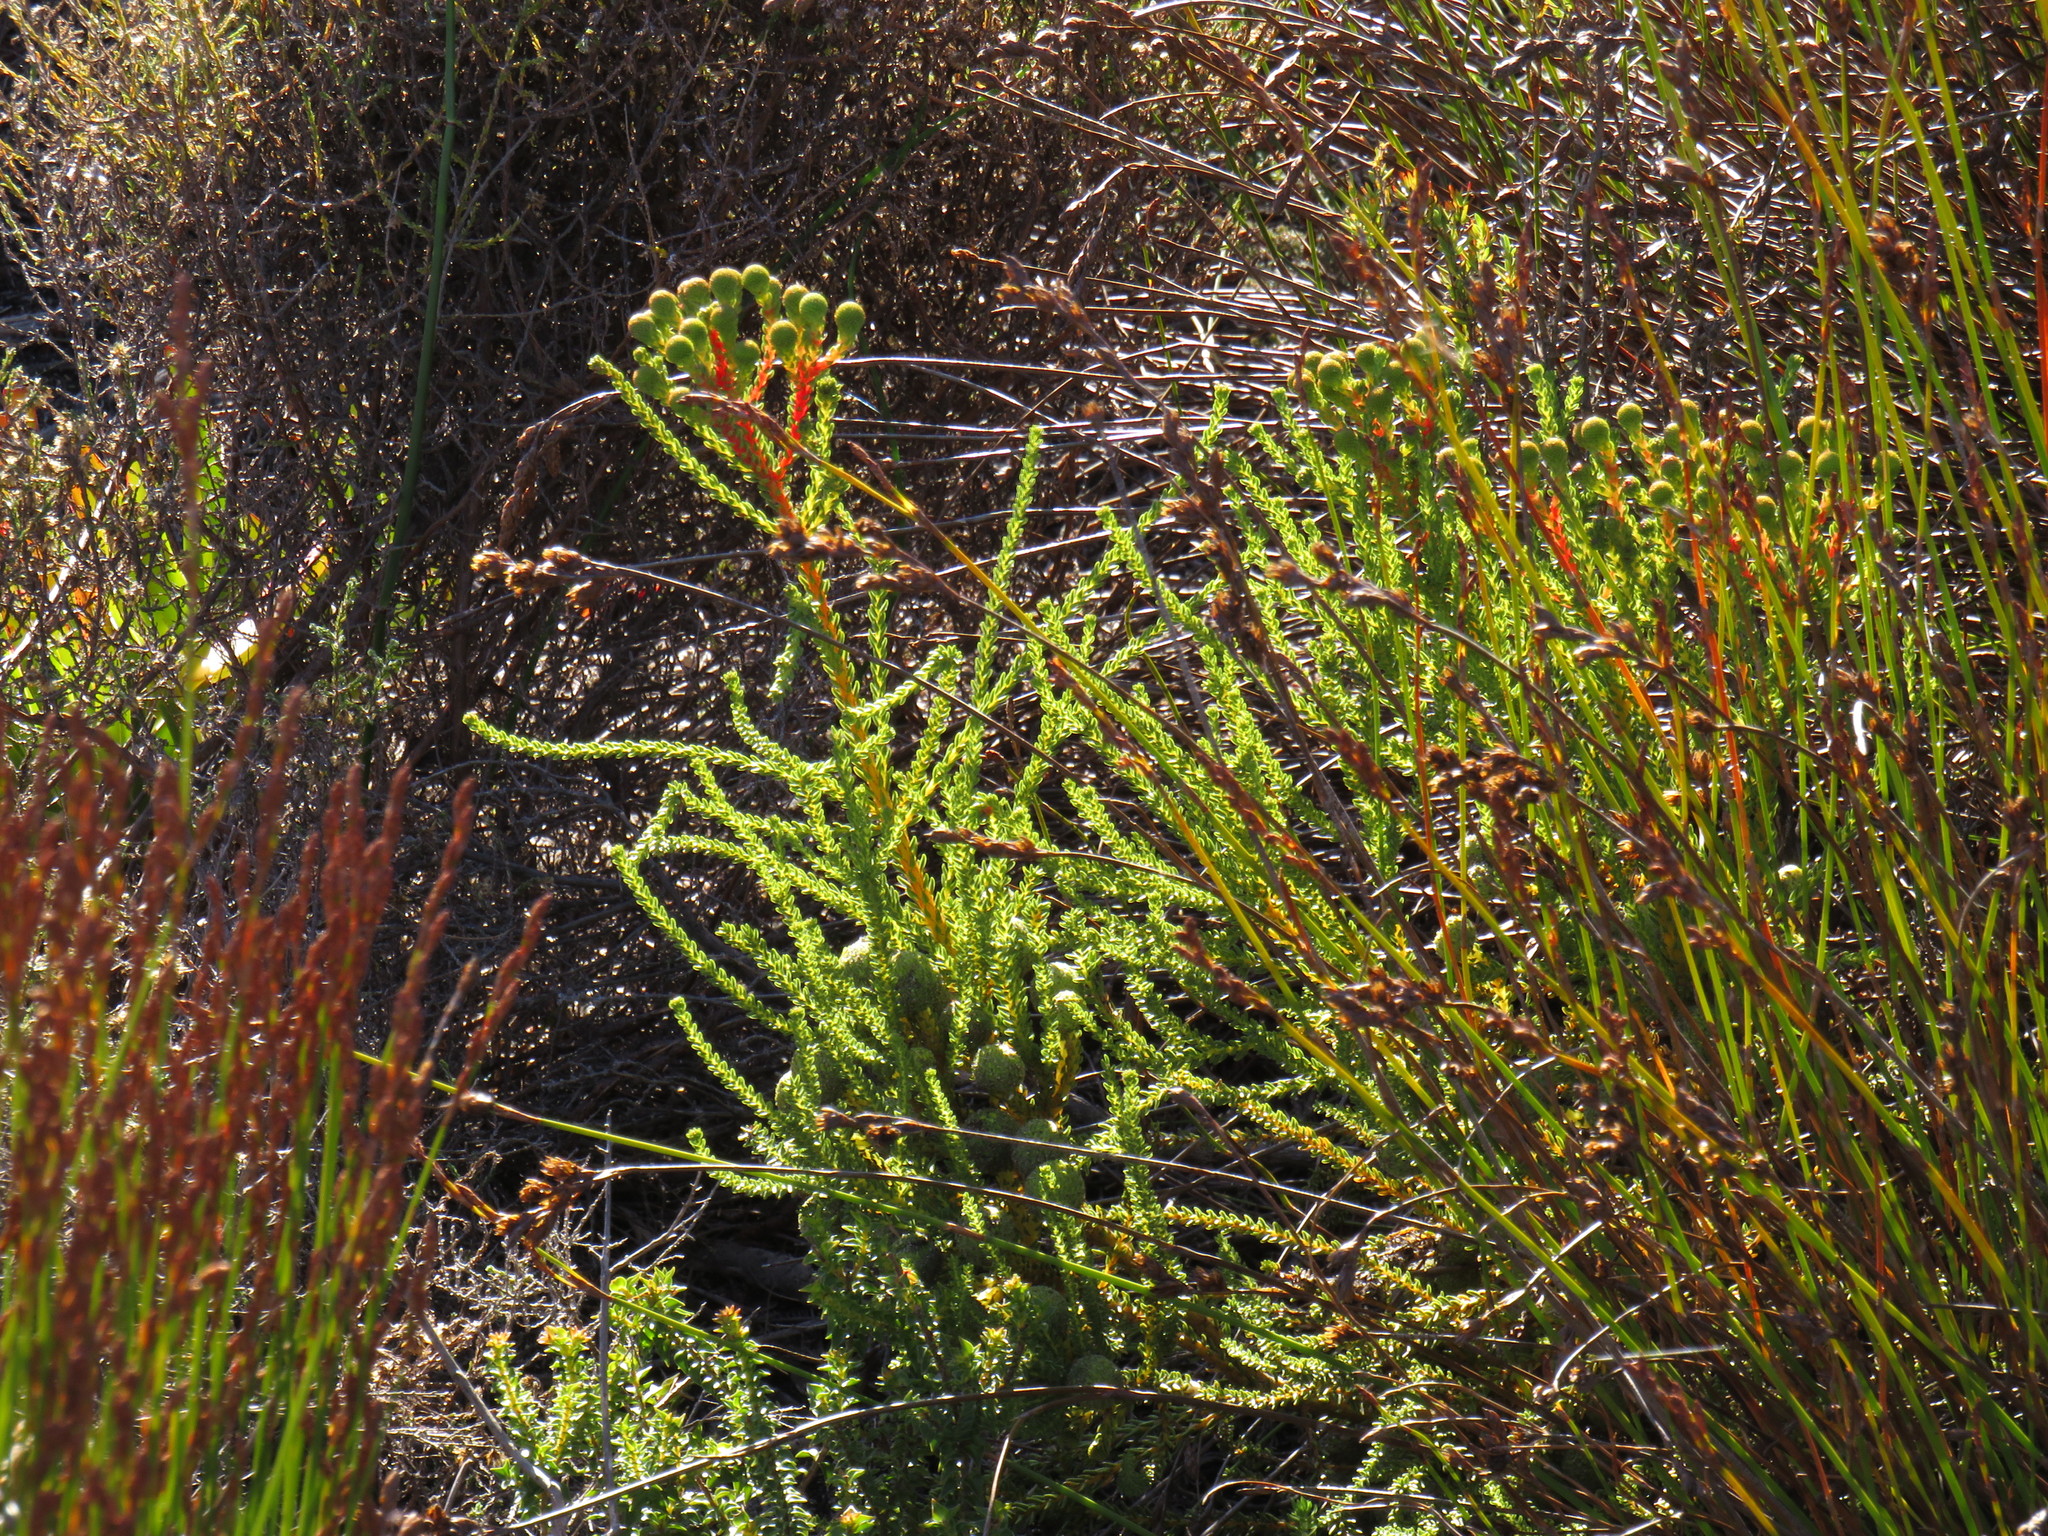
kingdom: Plantae
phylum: Tracheophyta
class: Magnoliopsida
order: Bruniales
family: Bruniaceae
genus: Berzelia
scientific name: Berzelia abrotanoides
